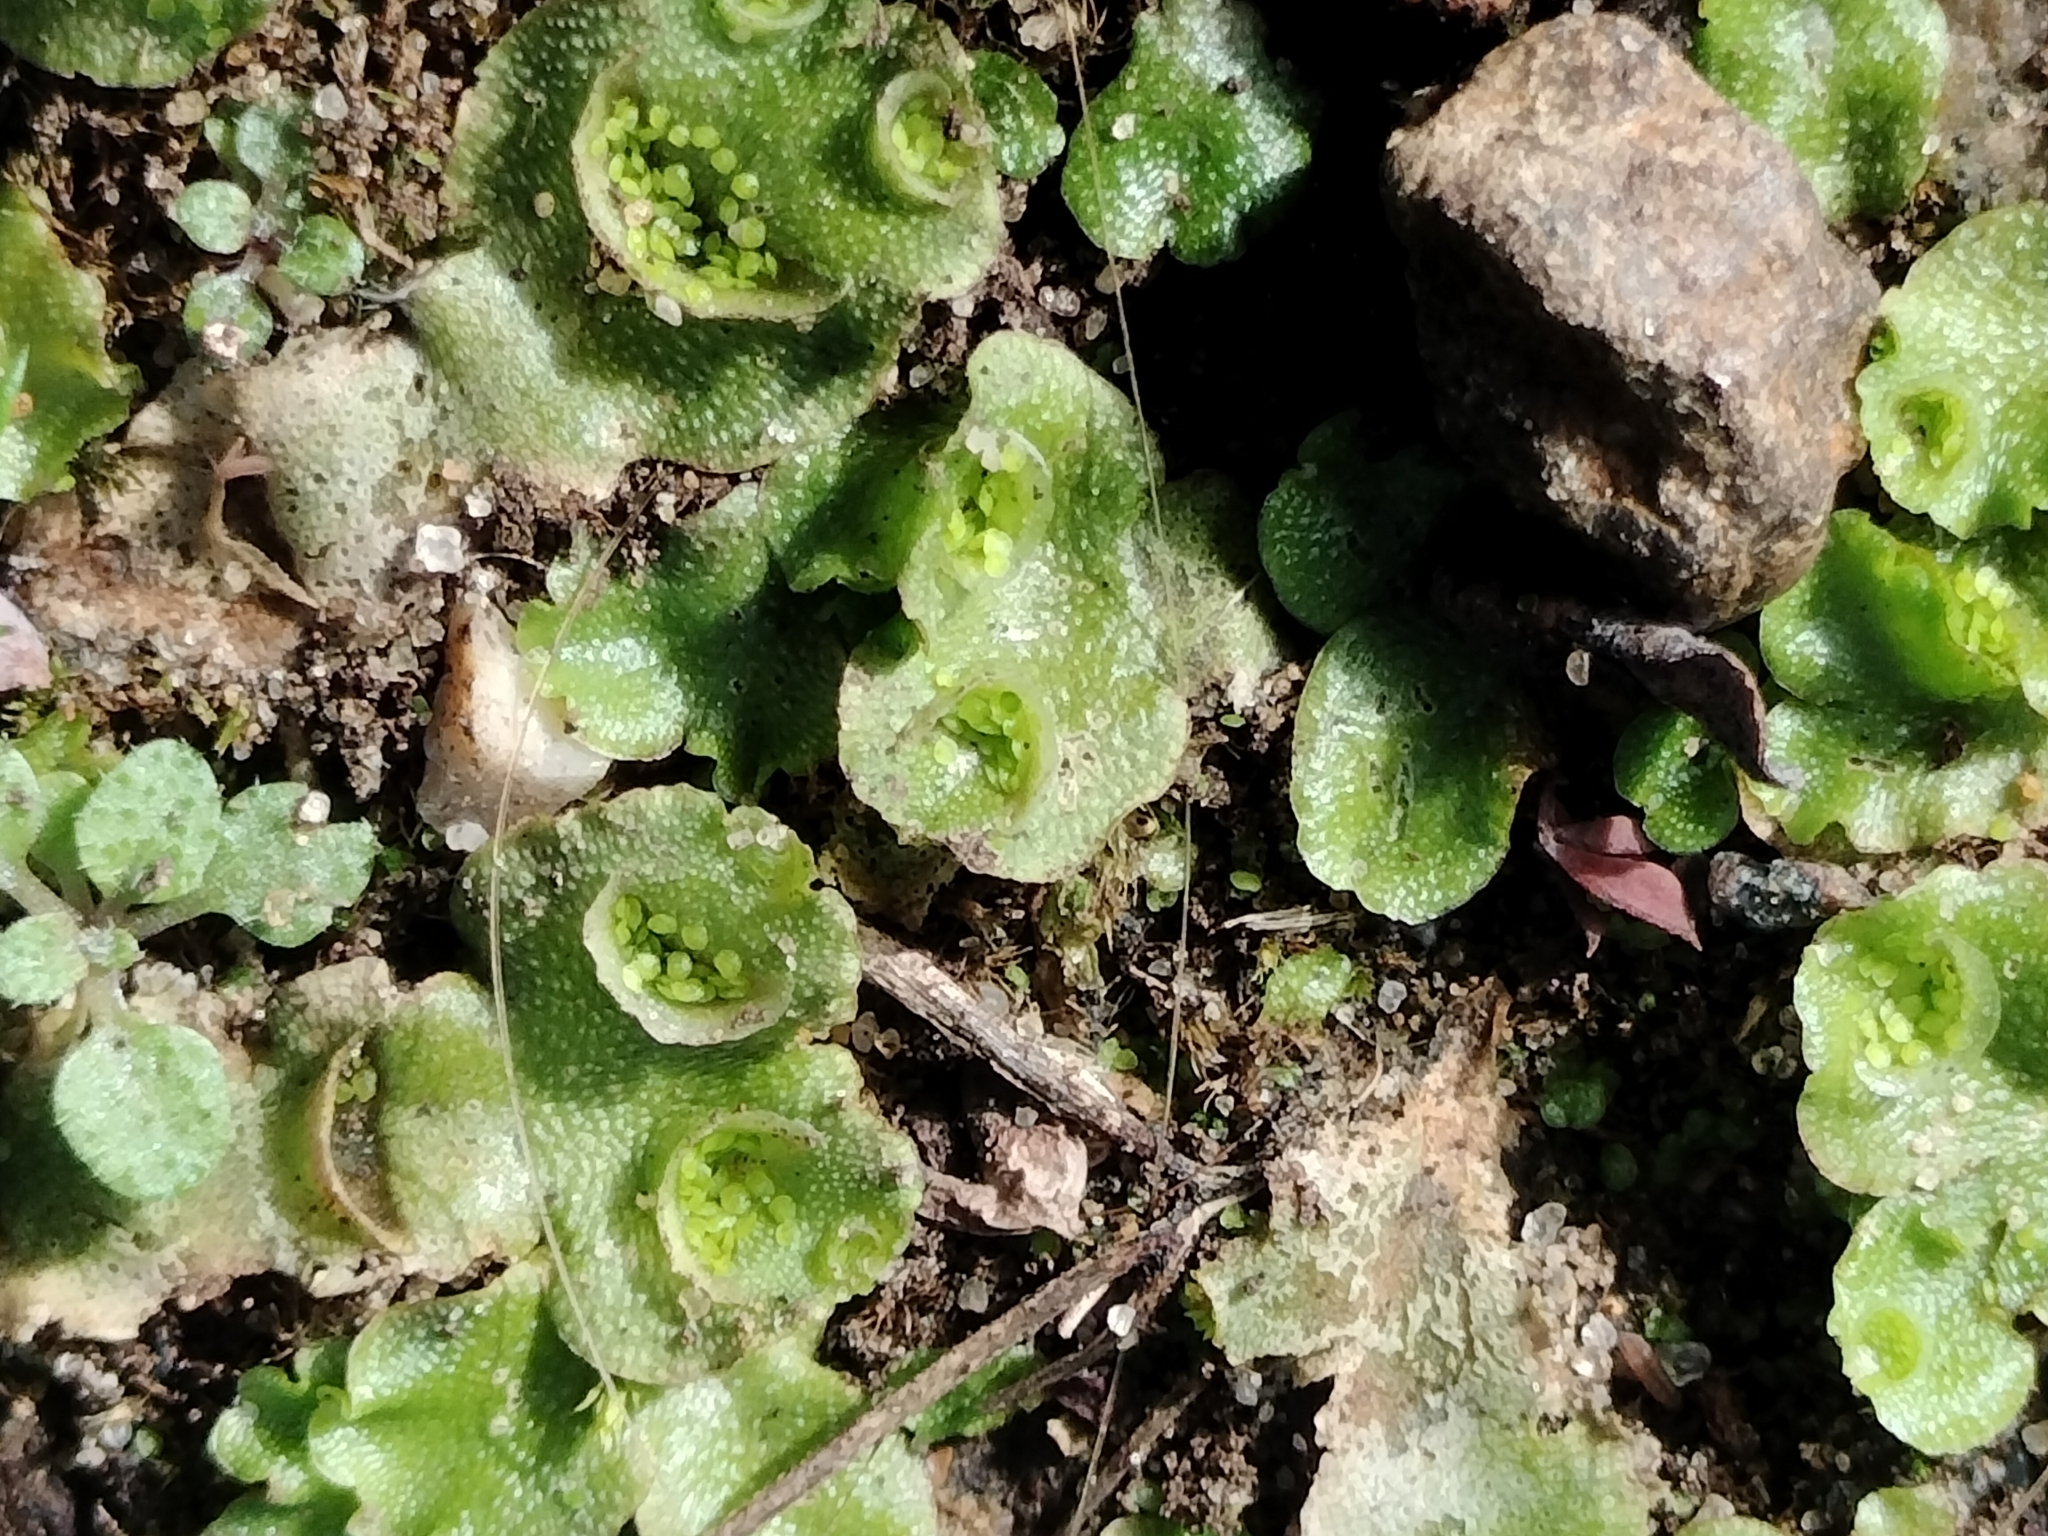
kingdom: Plantae
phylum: Marchantiophyta
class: Marchantiopsida
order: Lunulariales
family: Lunulariaceae
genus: Lunularia
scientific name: Lunularia cruciata
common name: Crescent-cup liverwort
